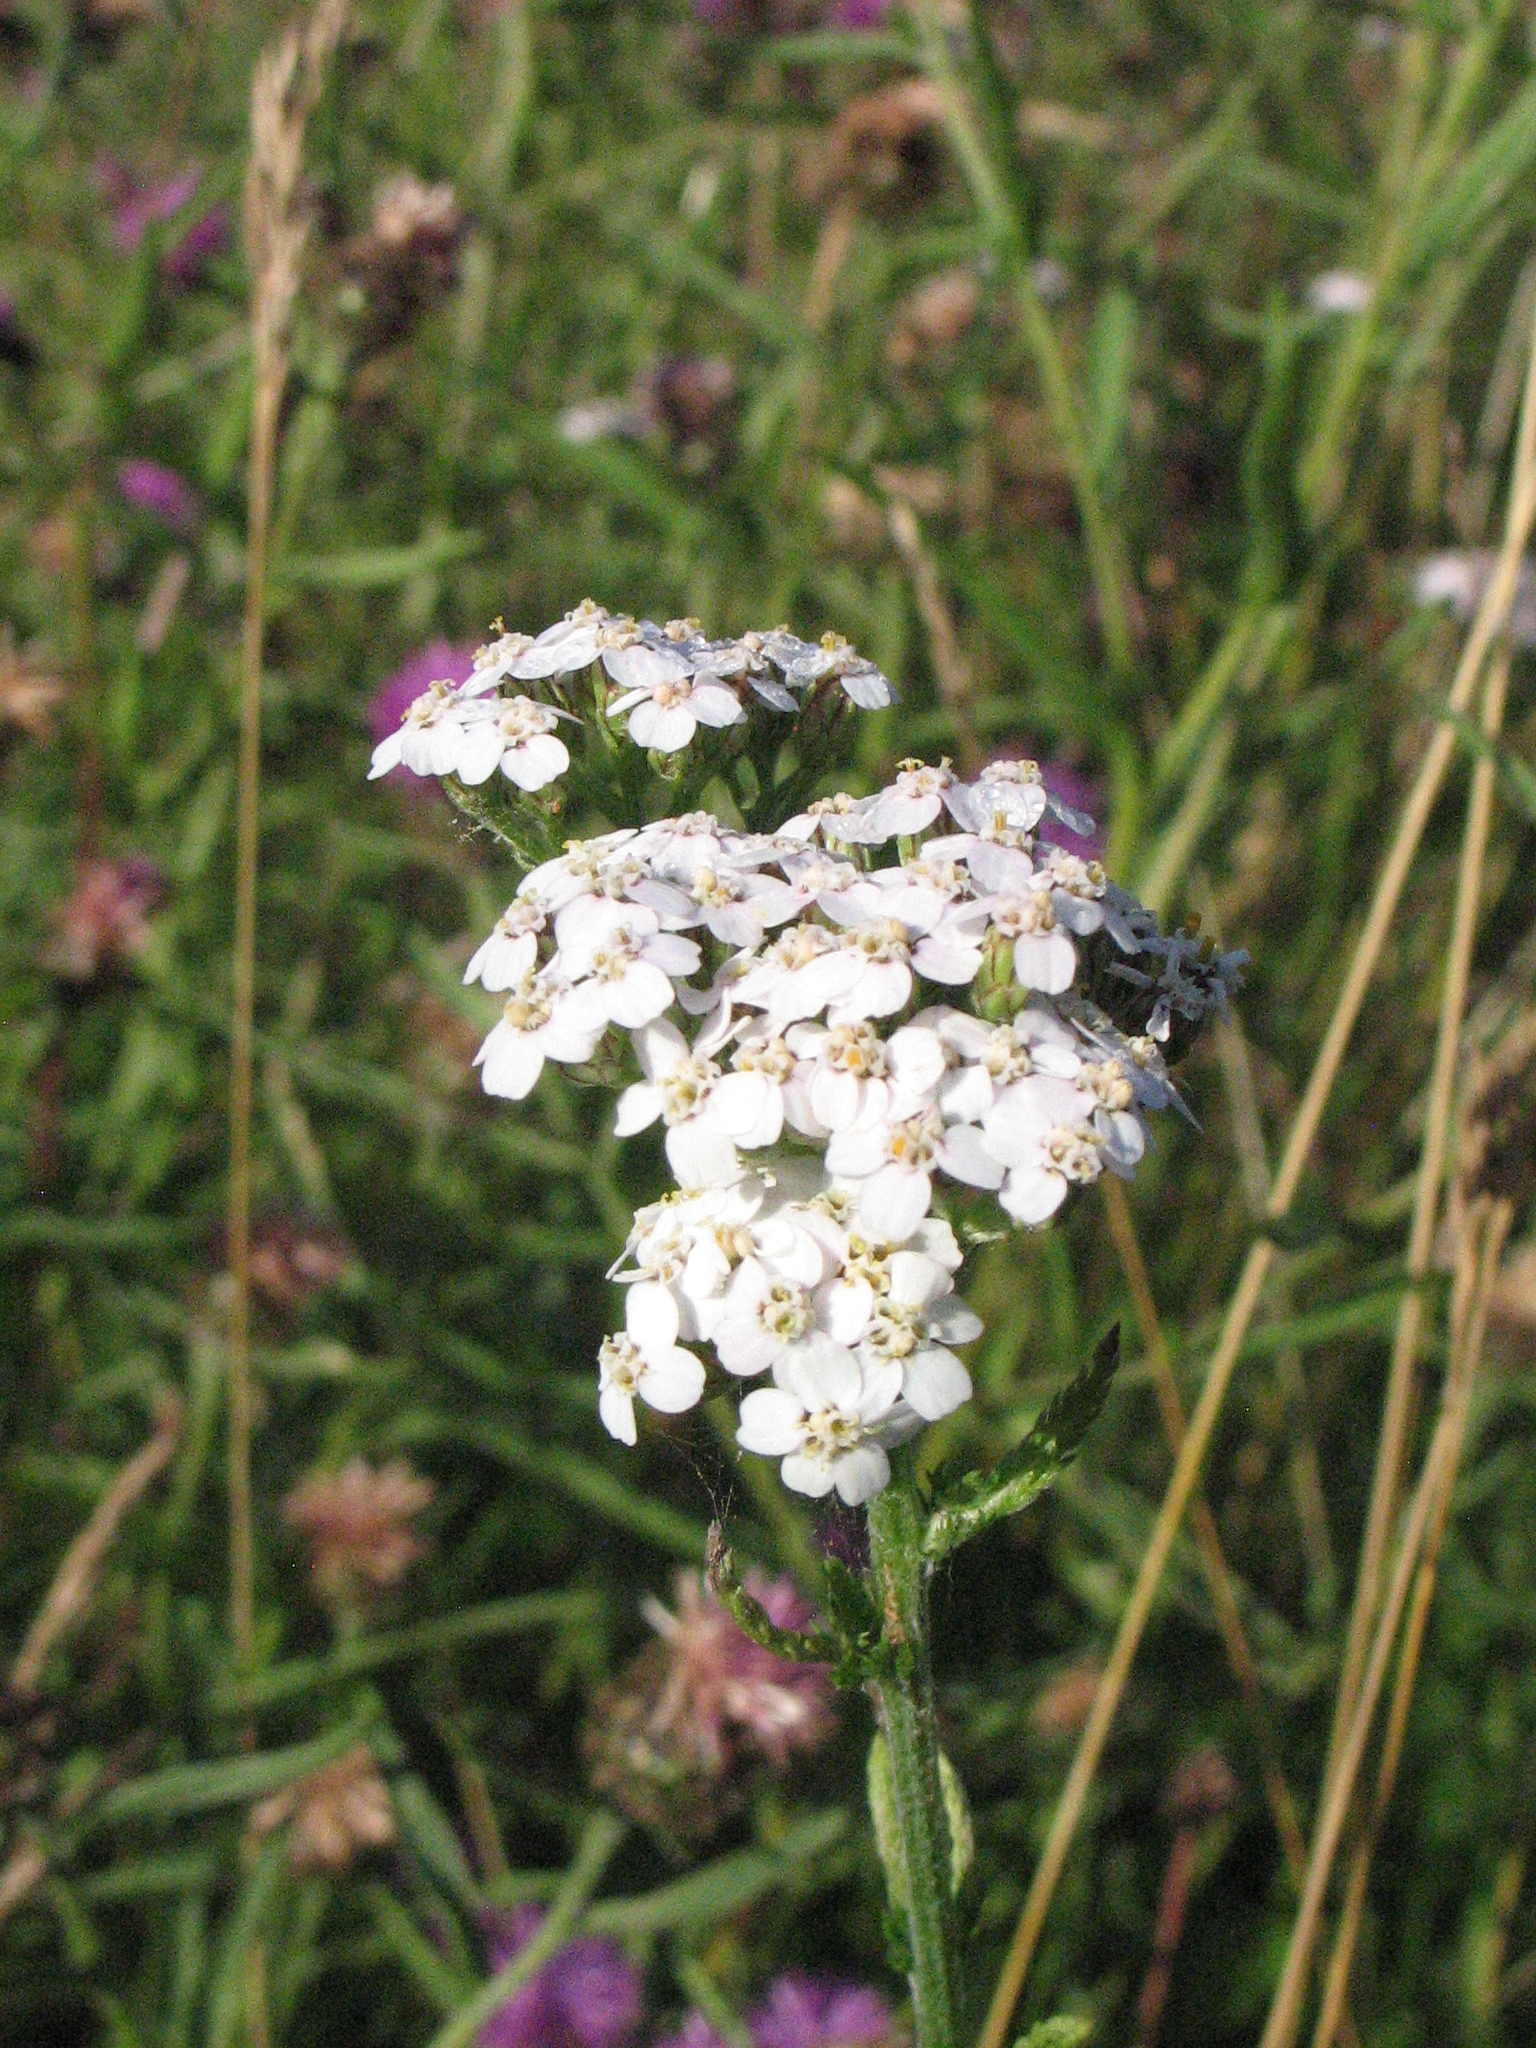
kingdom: Plantae
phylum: Tracheophyta
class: Magnoliopsida
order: Asterales
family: Asteraceae
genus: Achillea
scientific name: Achillea millefolium
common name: Yarrow
